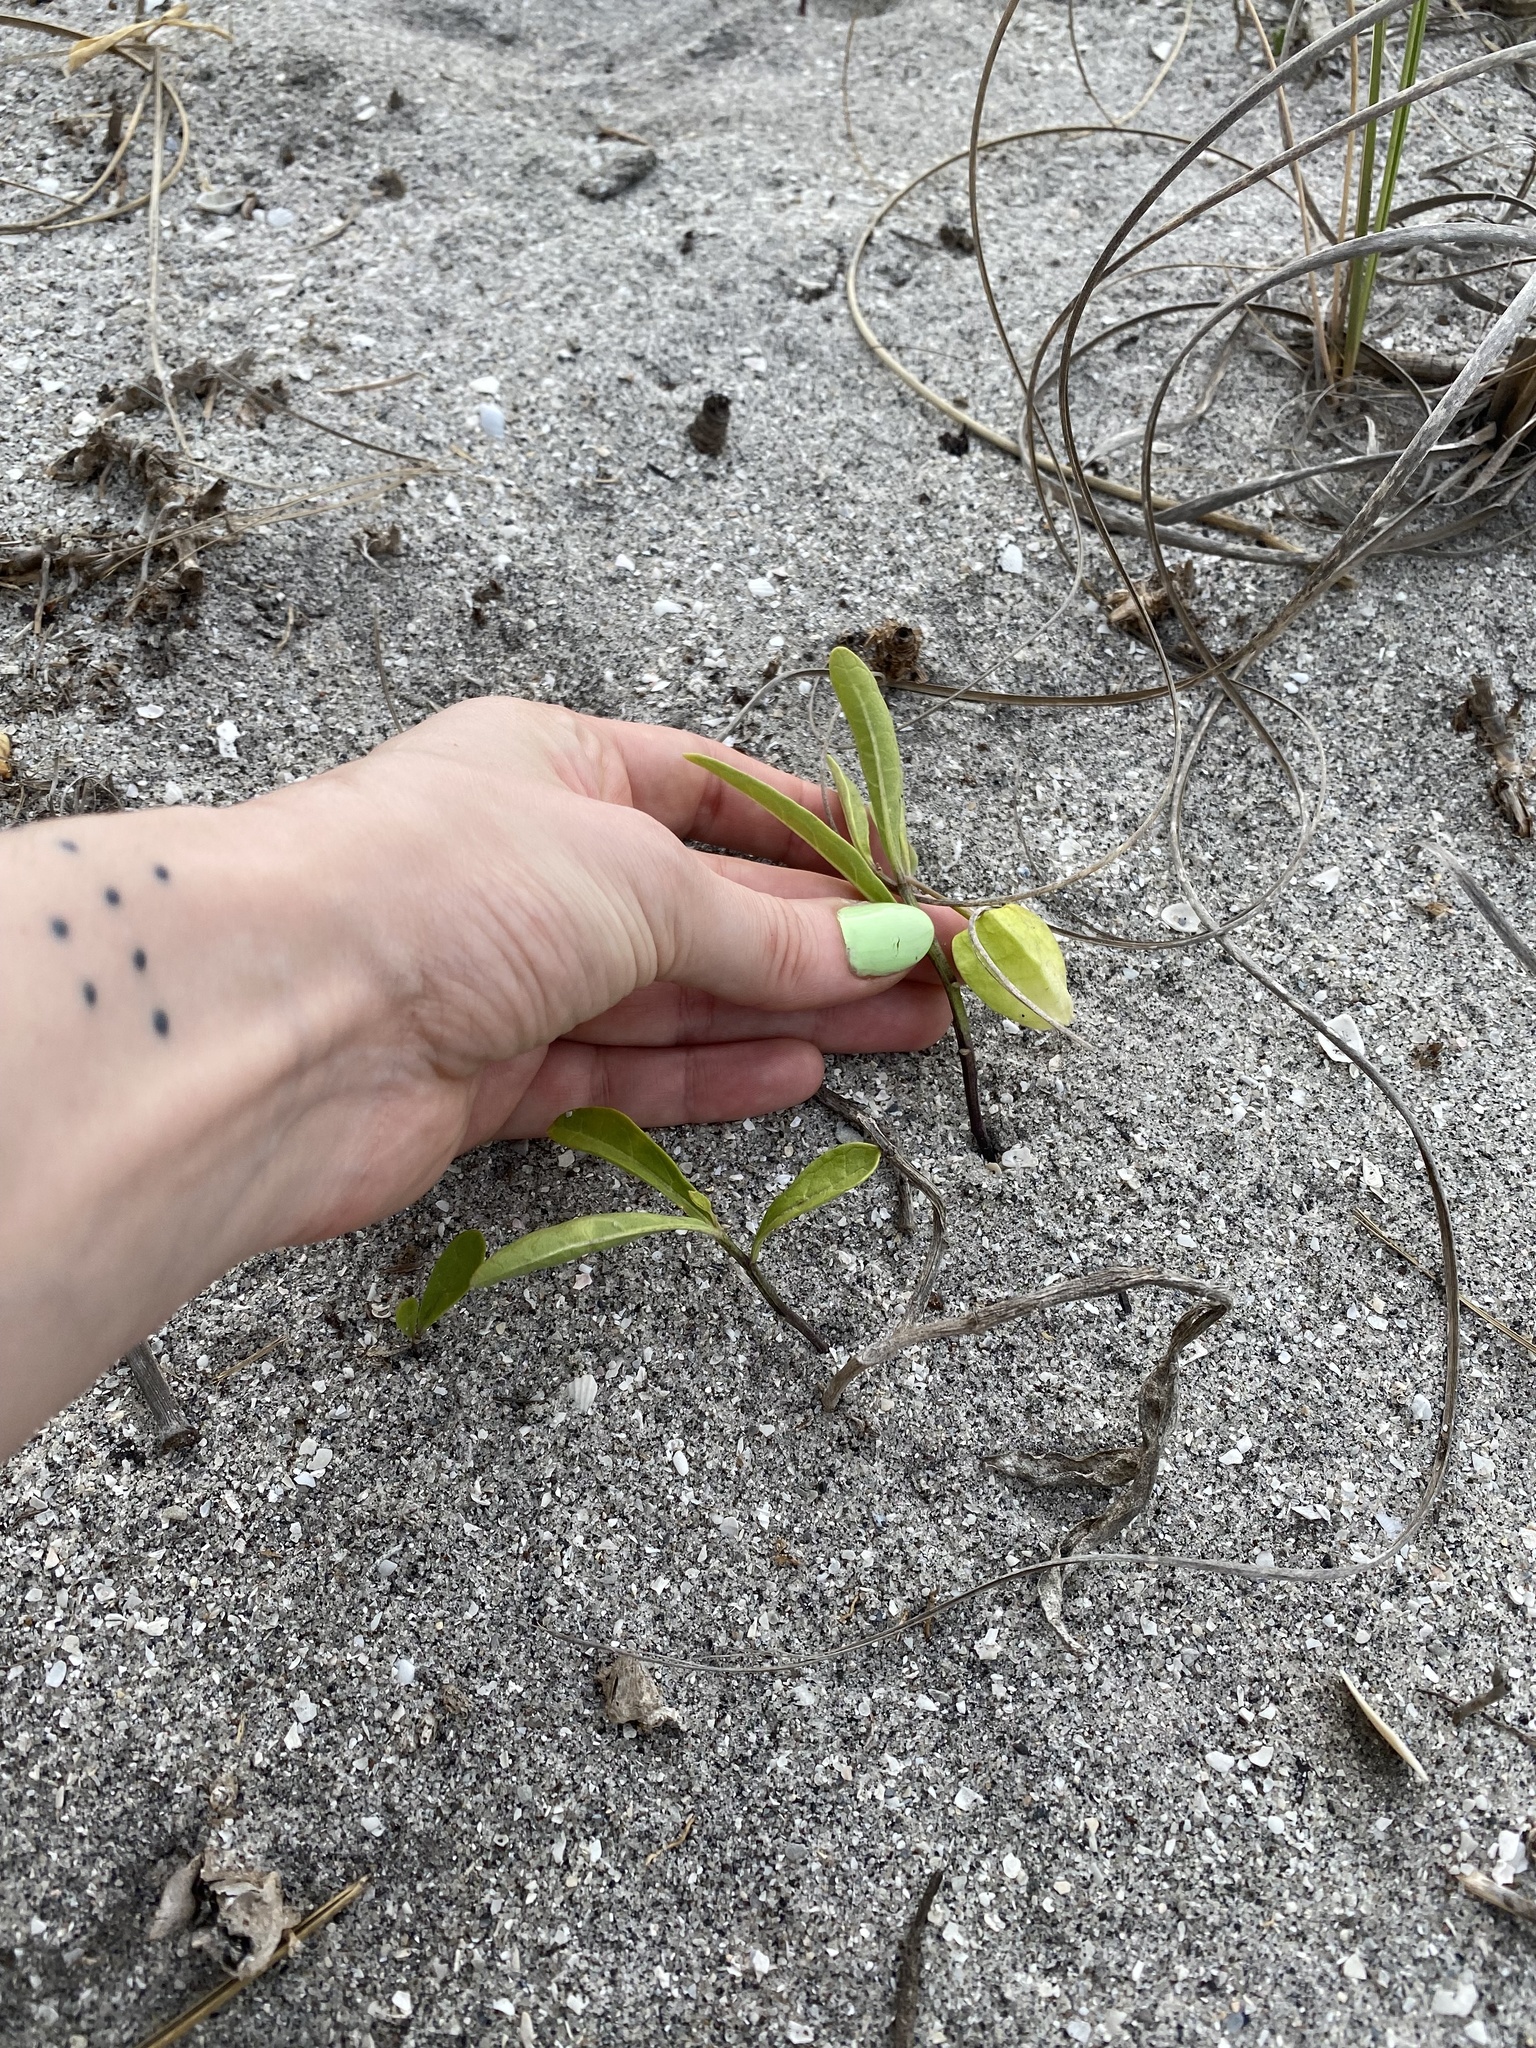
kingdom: Plantae
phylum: Tracheophyta
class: Magnoliopsida
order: Solanales
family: Solanaceae
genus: Physalis
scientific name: Physalis angustifolia
